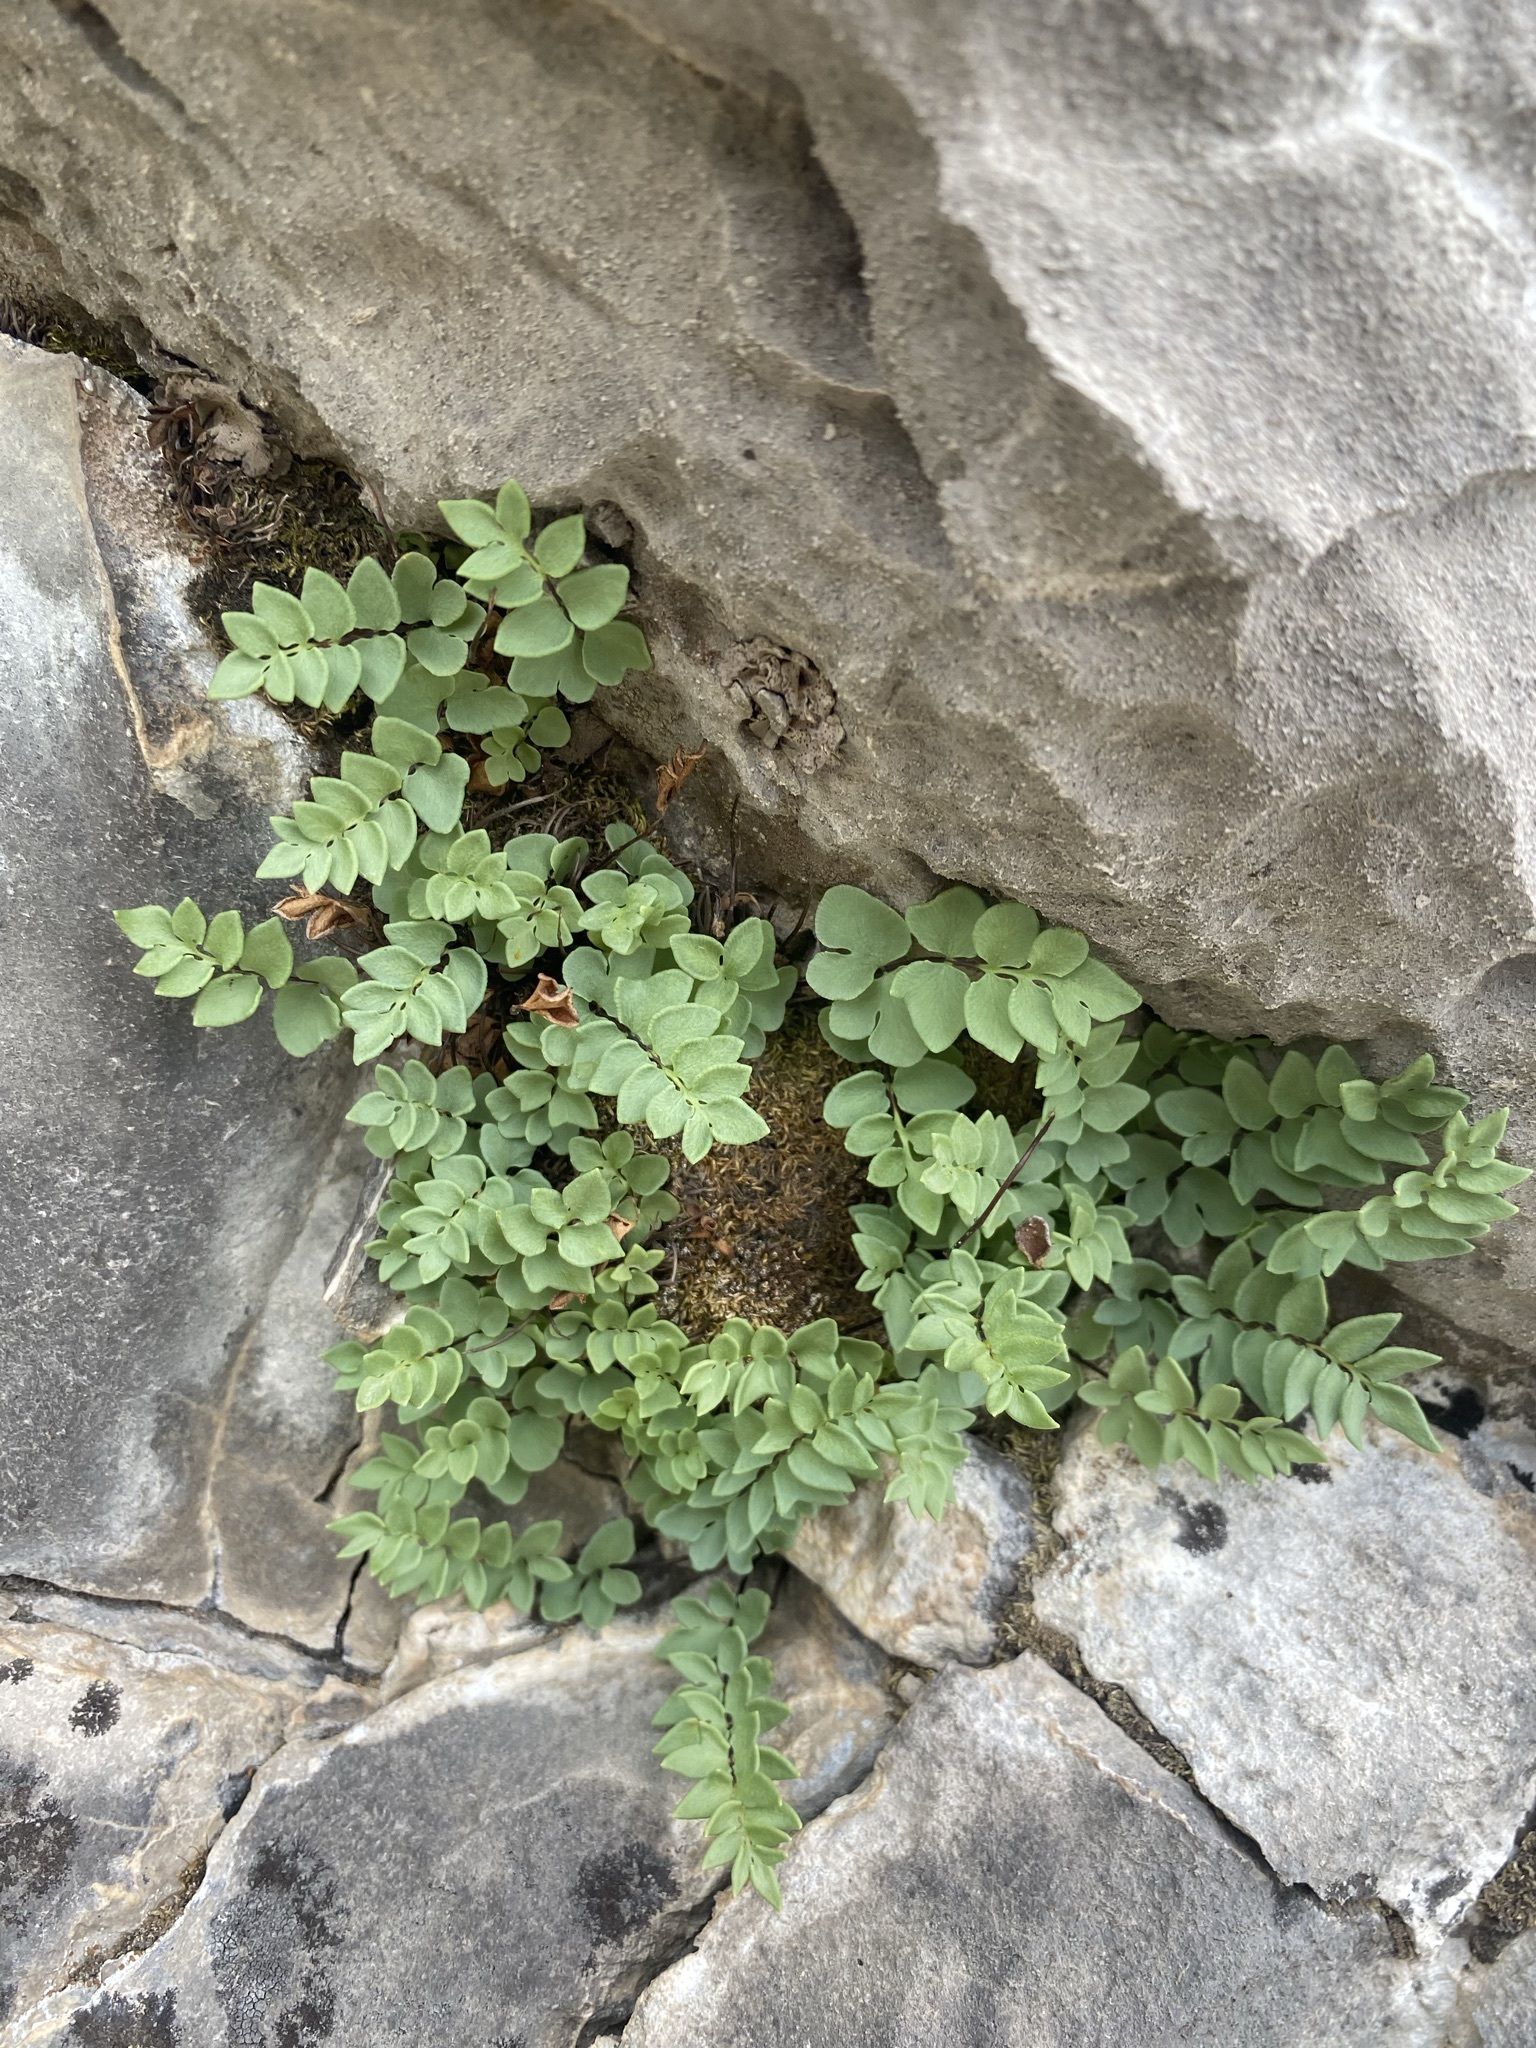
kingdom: Plantae
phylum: Tracheophyta
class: Polypodiopsida
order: Polypodiales
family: Pteridaceae
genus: Pellaea
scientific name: Pellaea breweri
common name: Brewer's cliffbrake
